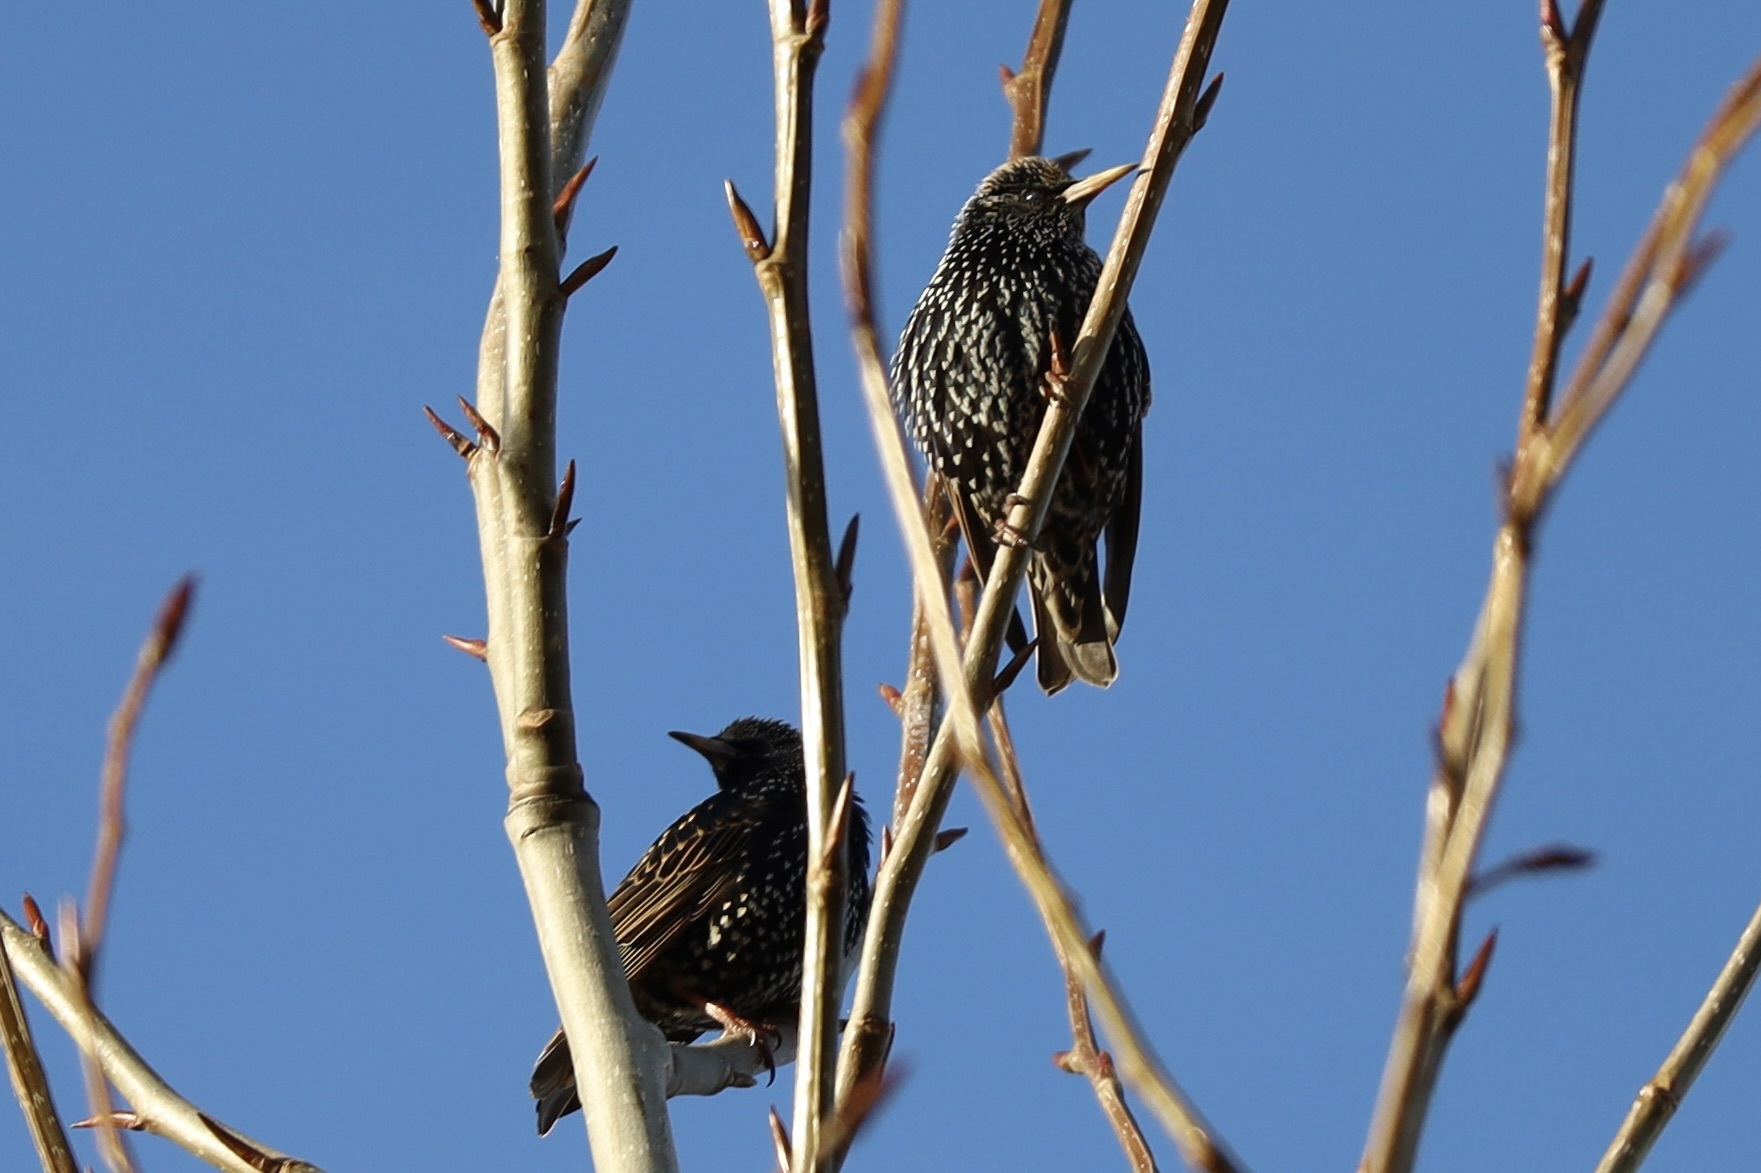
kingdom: Animalia
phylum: Chordata
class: Aves
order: Passeriformes
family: Sturnidae
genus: Sturnus
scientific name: Sturnus vulgaris
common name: Common starling
